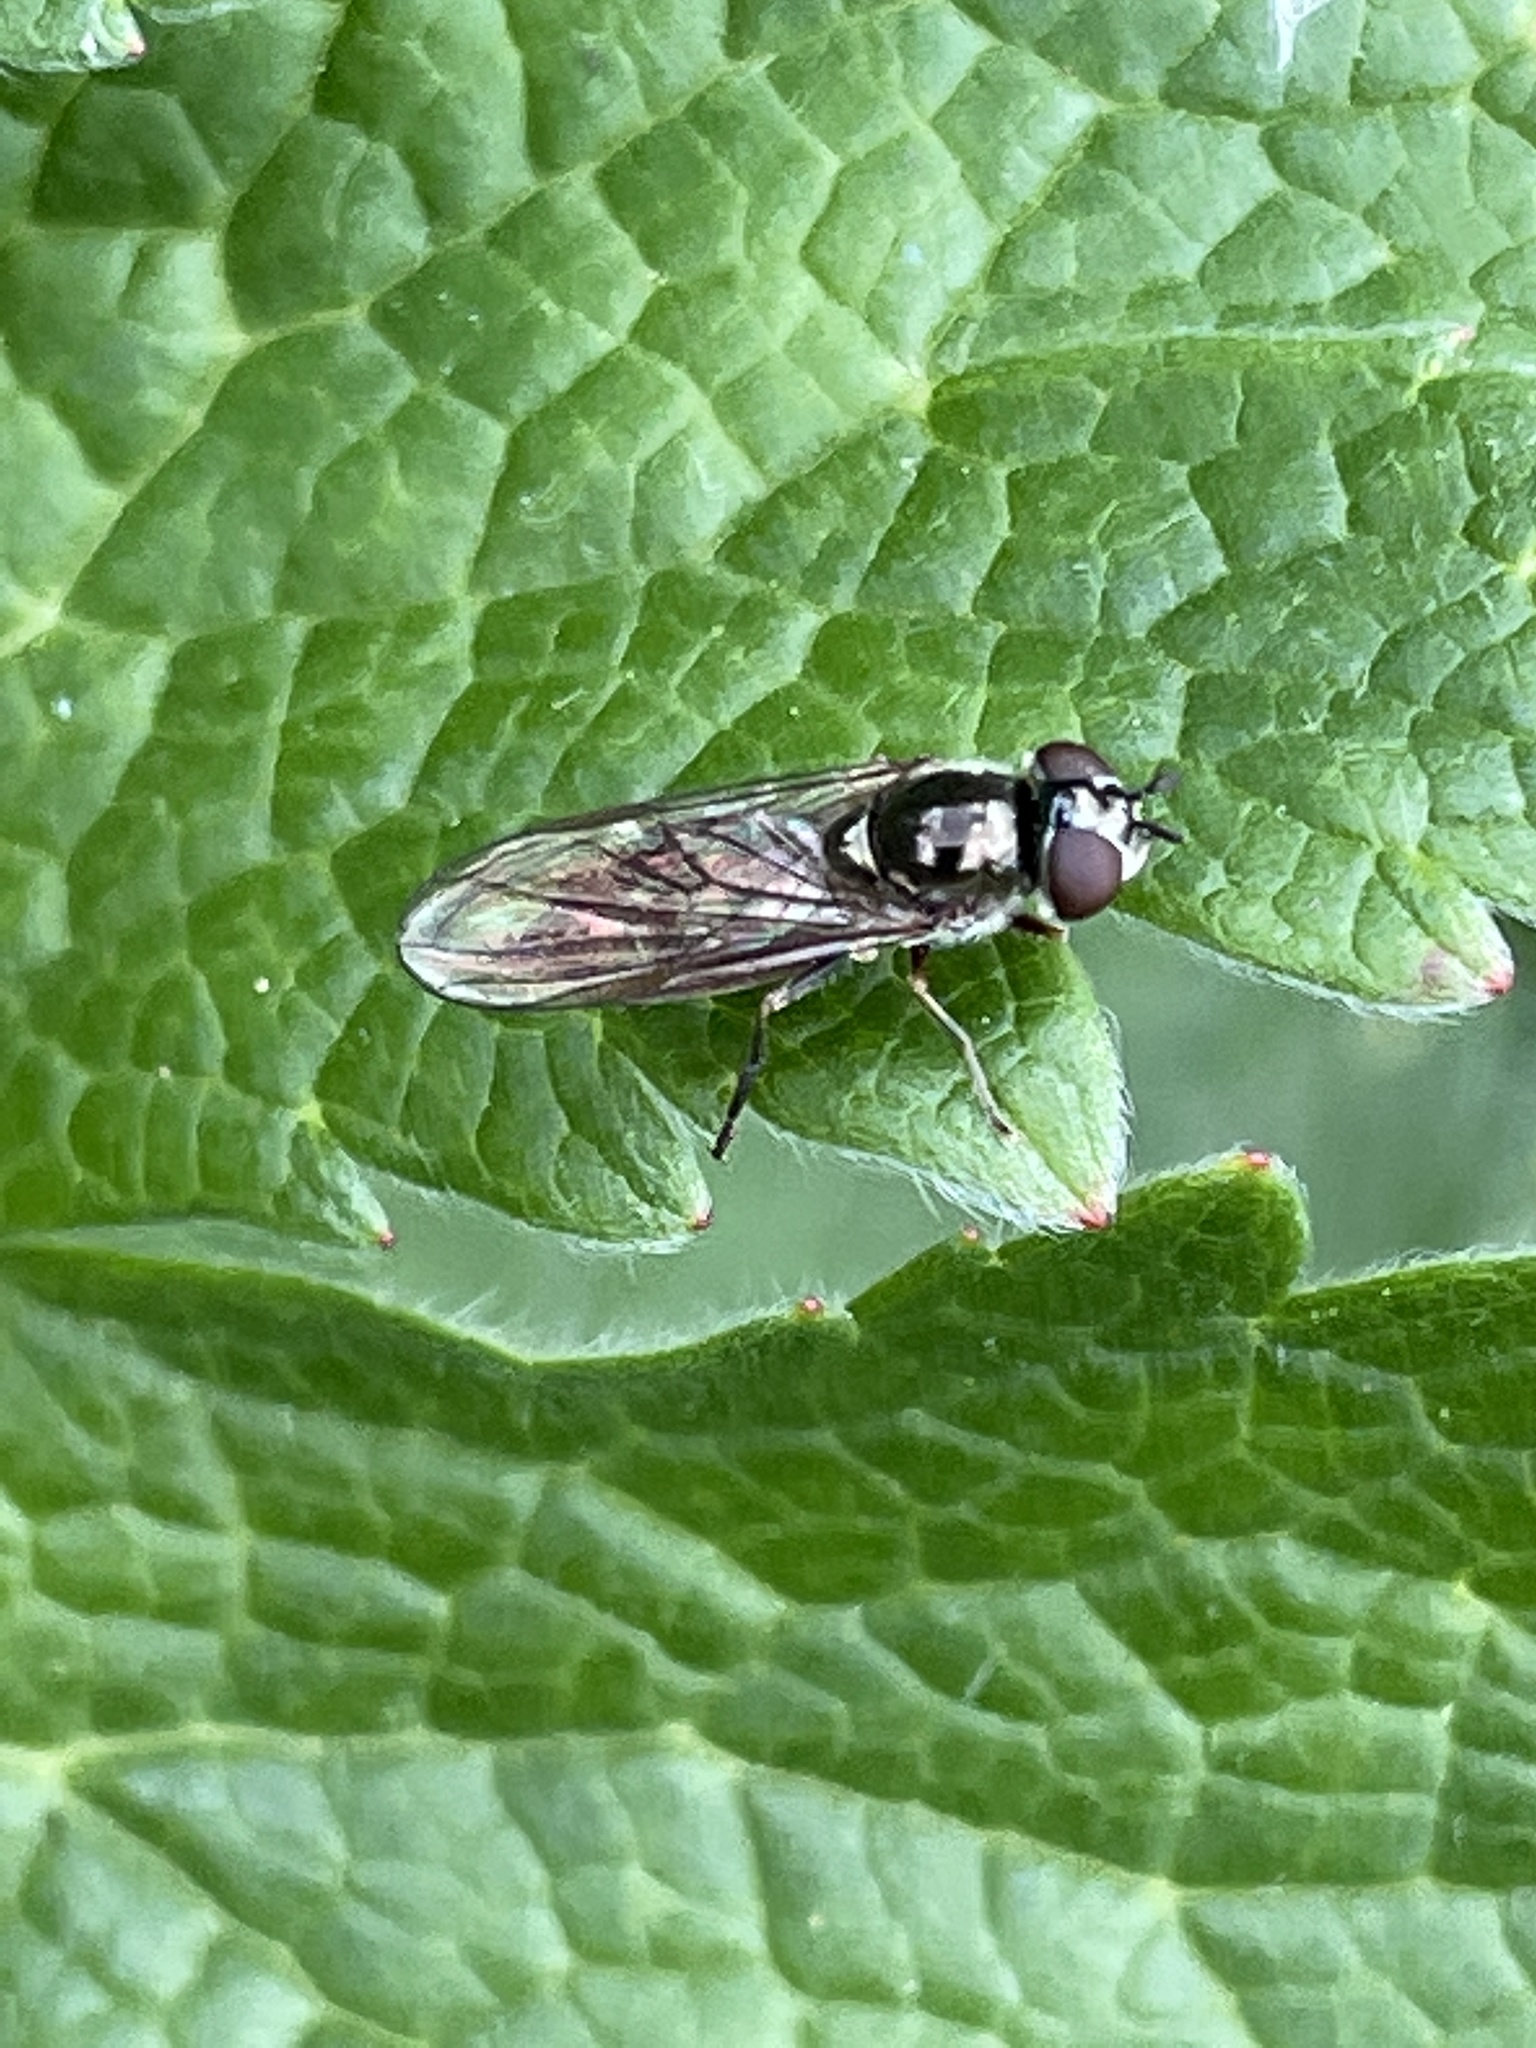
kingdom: Animalia
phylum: Arthropoda
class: Insecta
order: Diptera
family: Syrphidae
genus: Platycheirus
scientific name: Platycheirus albimanus
